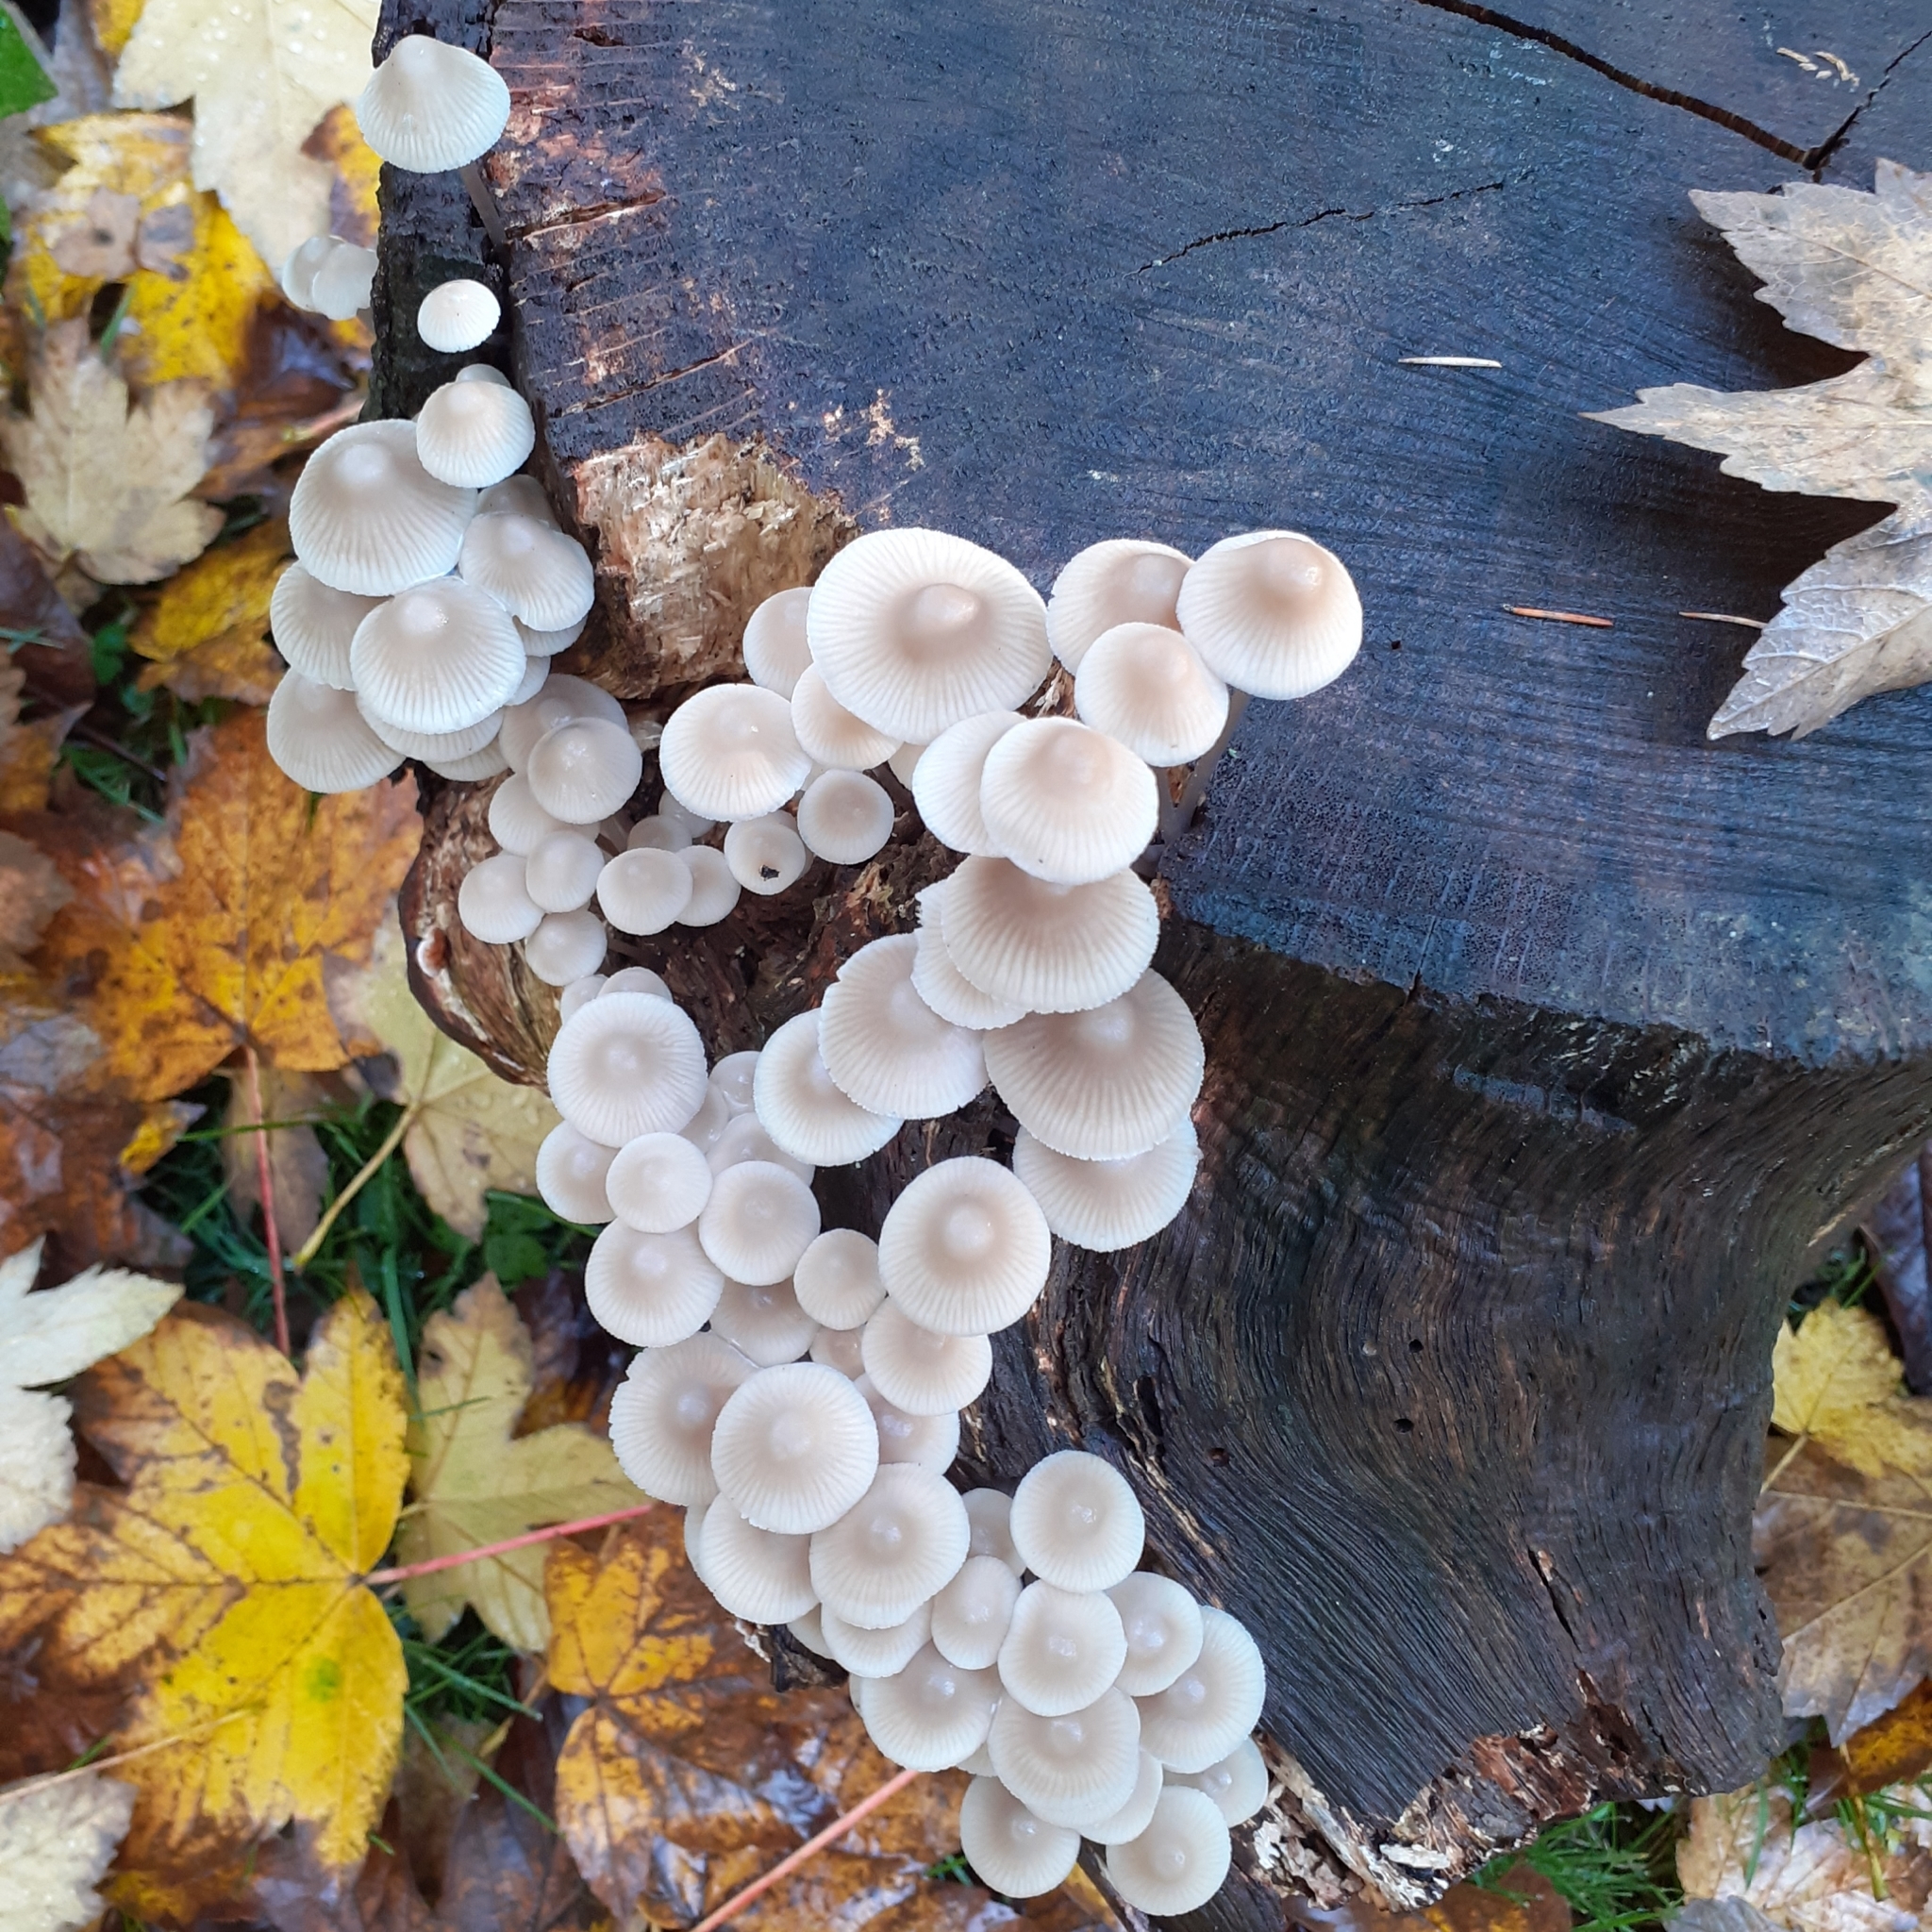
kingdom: Fungi
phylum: Basidiomycota
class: Agaricomycetes
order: Agaricales
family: Mycenaceae
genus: Mycena
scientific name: Mycena galericulata
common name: Bonnet mycena
